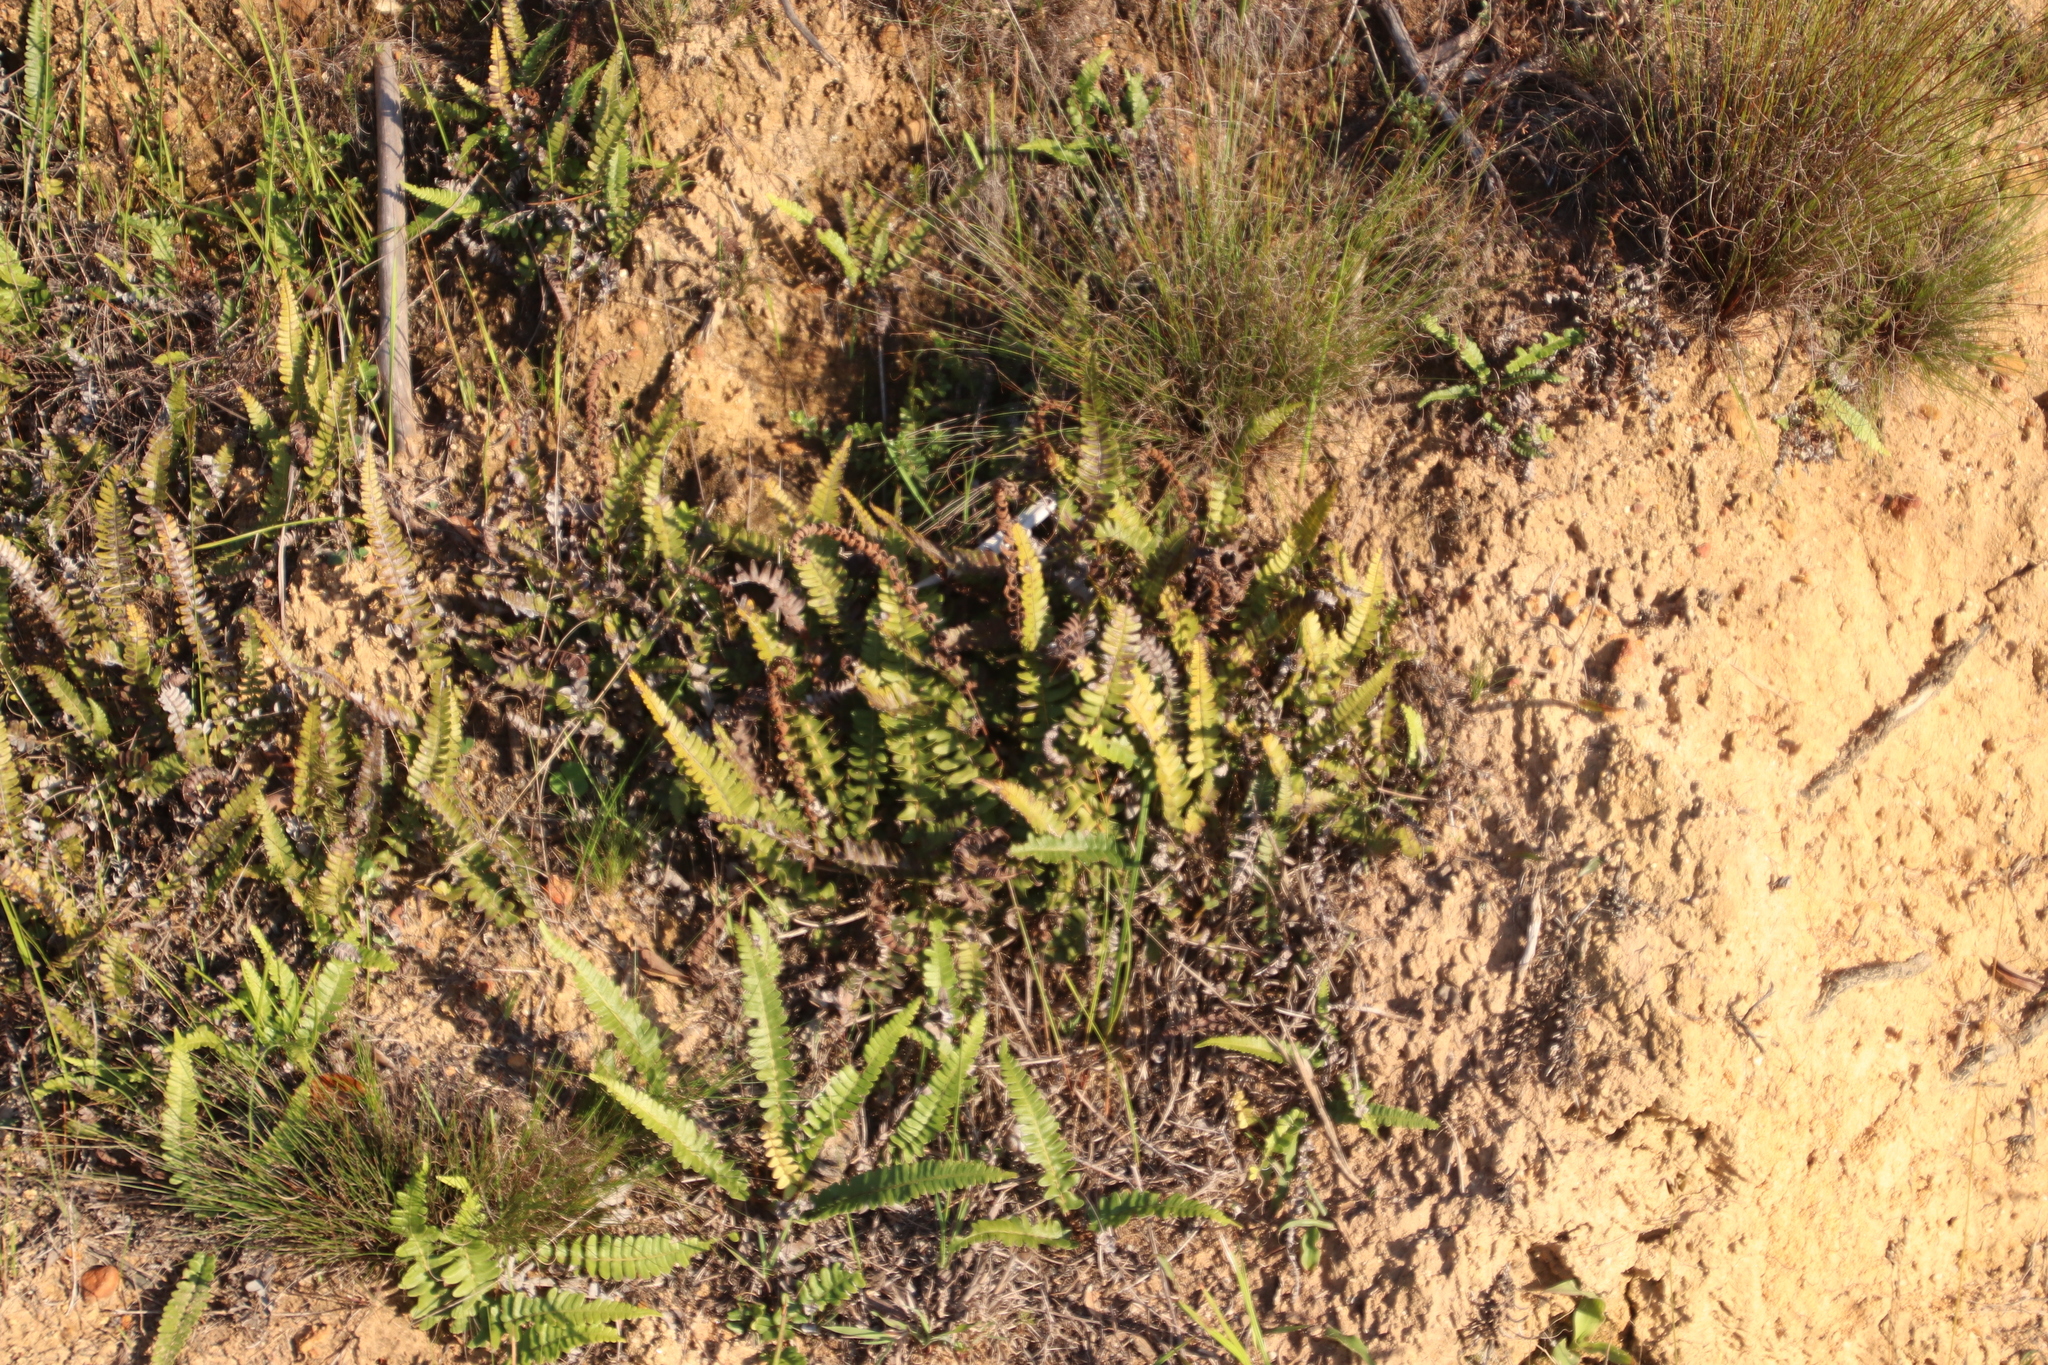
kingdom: Plantae
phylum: Tracheophyta
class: Polypodiopsida
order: Polypodiales
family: Blechnaceae
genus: Blechnum
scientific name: Blechnum australe
